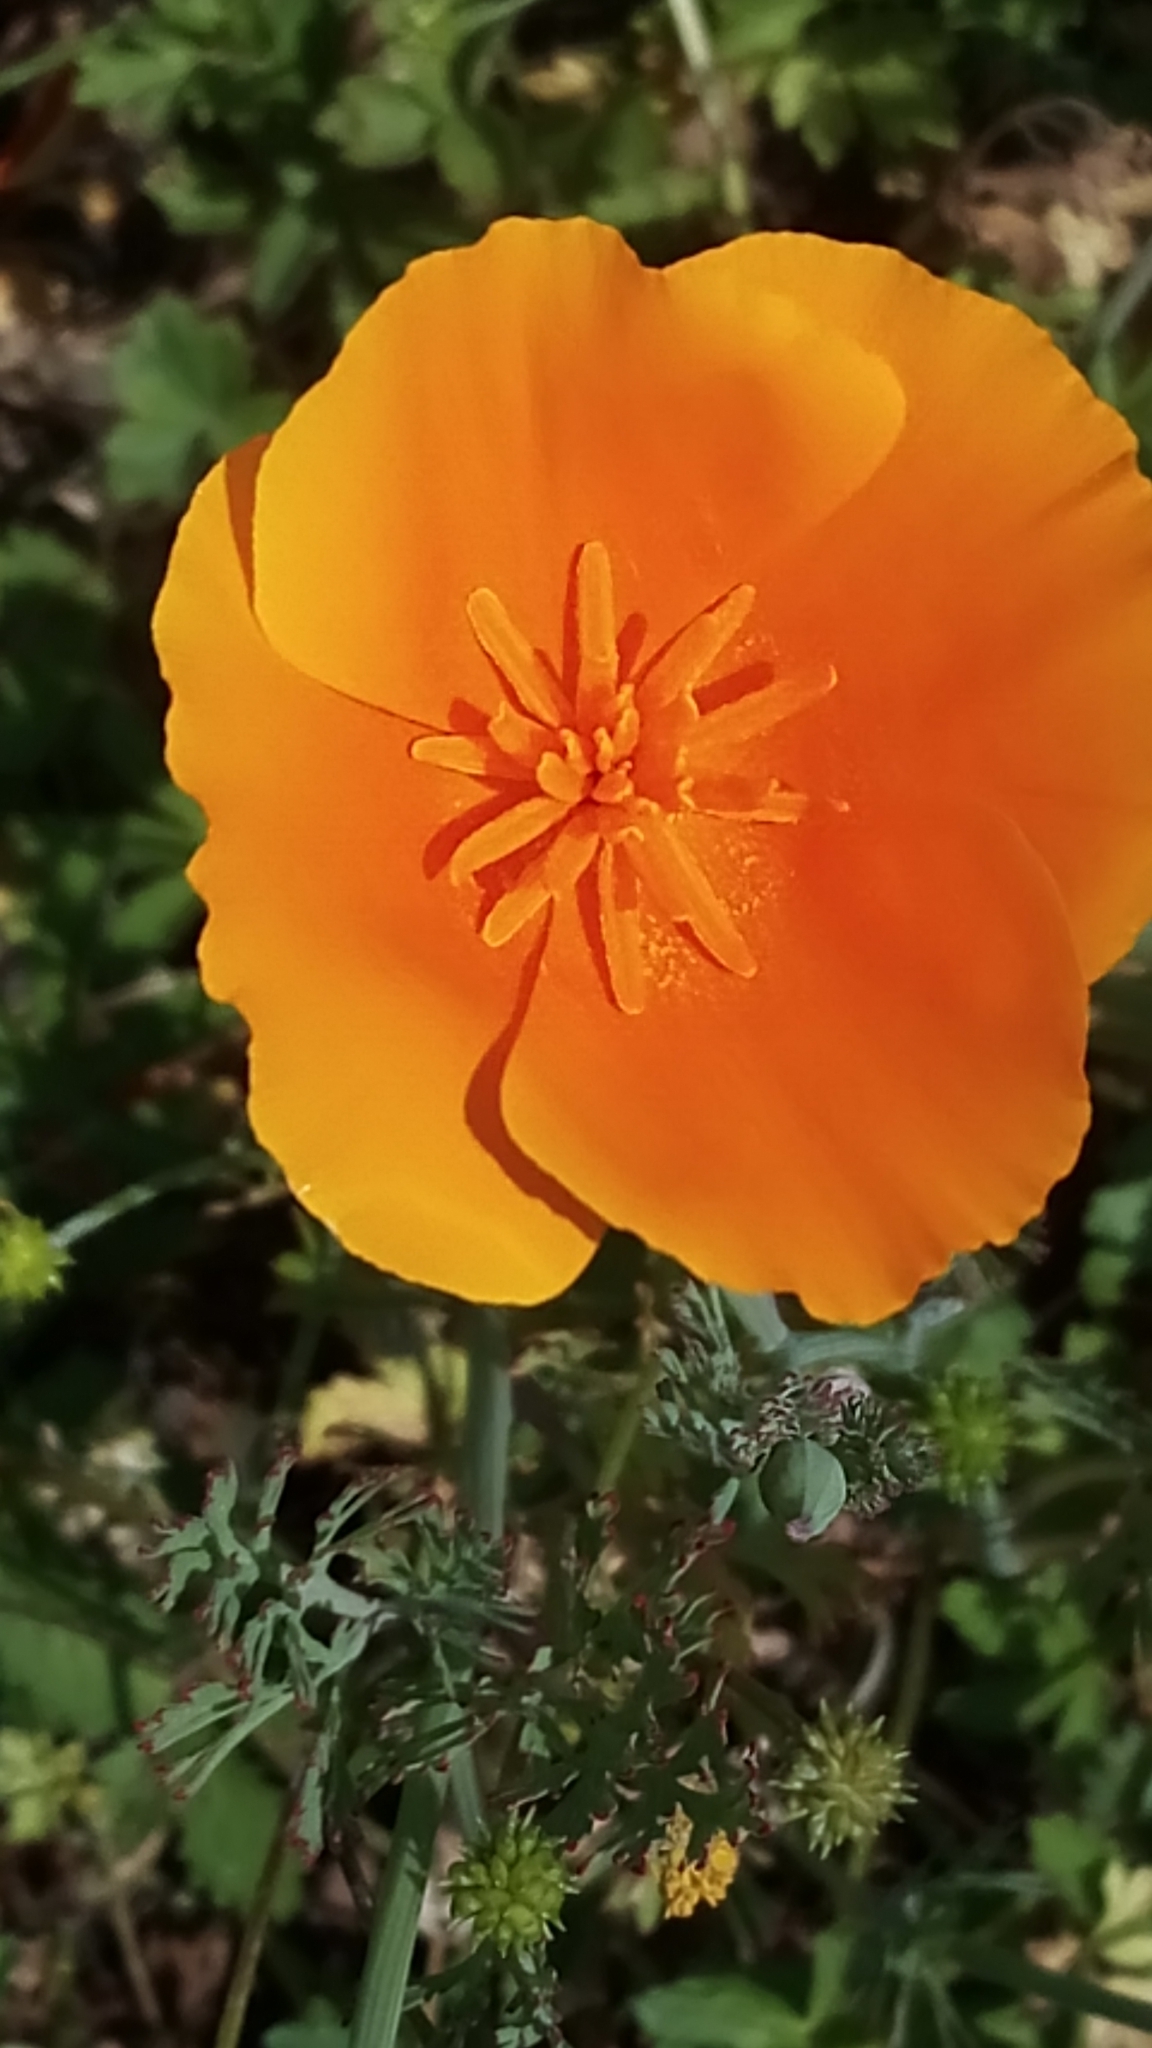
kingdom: Plantae
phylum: Tracheophyta
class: Magnoliopsida
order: Ranunculales
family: Papaveraceae
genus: Eschscholzia
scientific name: Eschscholzia californica
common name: California poppy
